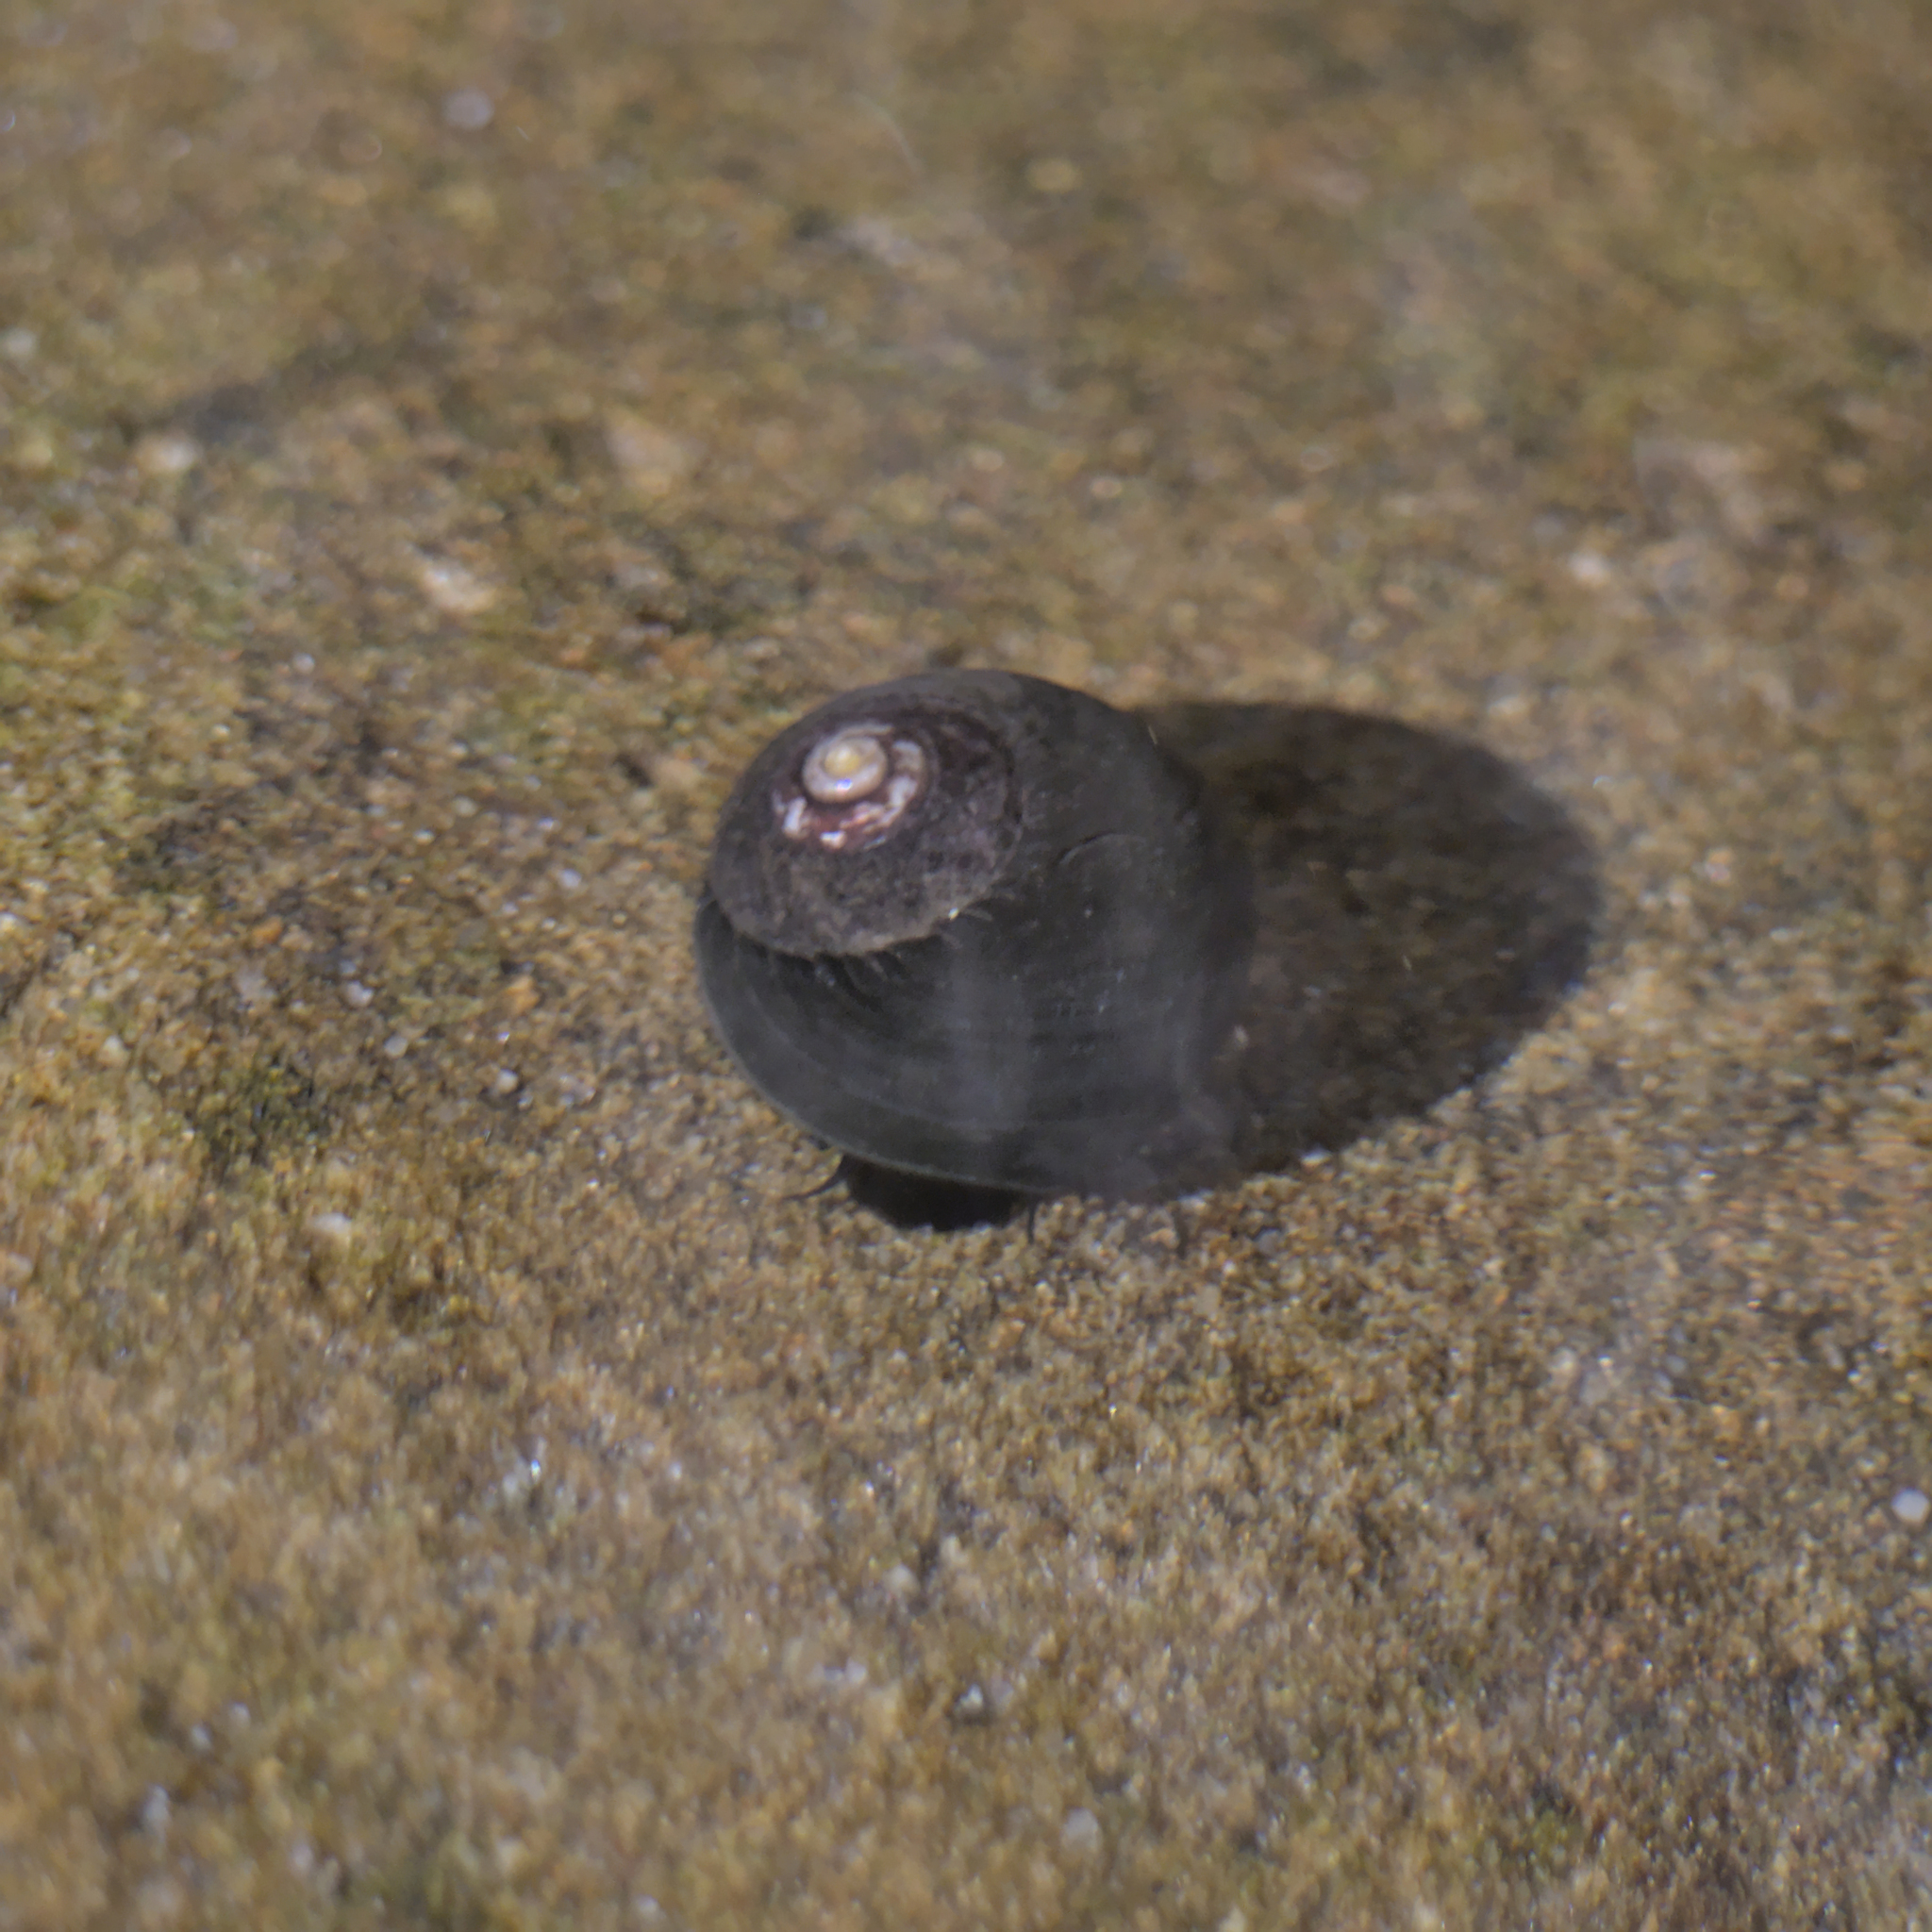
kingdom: Animalia
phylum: Mollusca
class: Gastropoda
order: Trochida
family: Tegulidae
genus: Tegula
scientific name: Tegula funebralis
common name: Black tegula
